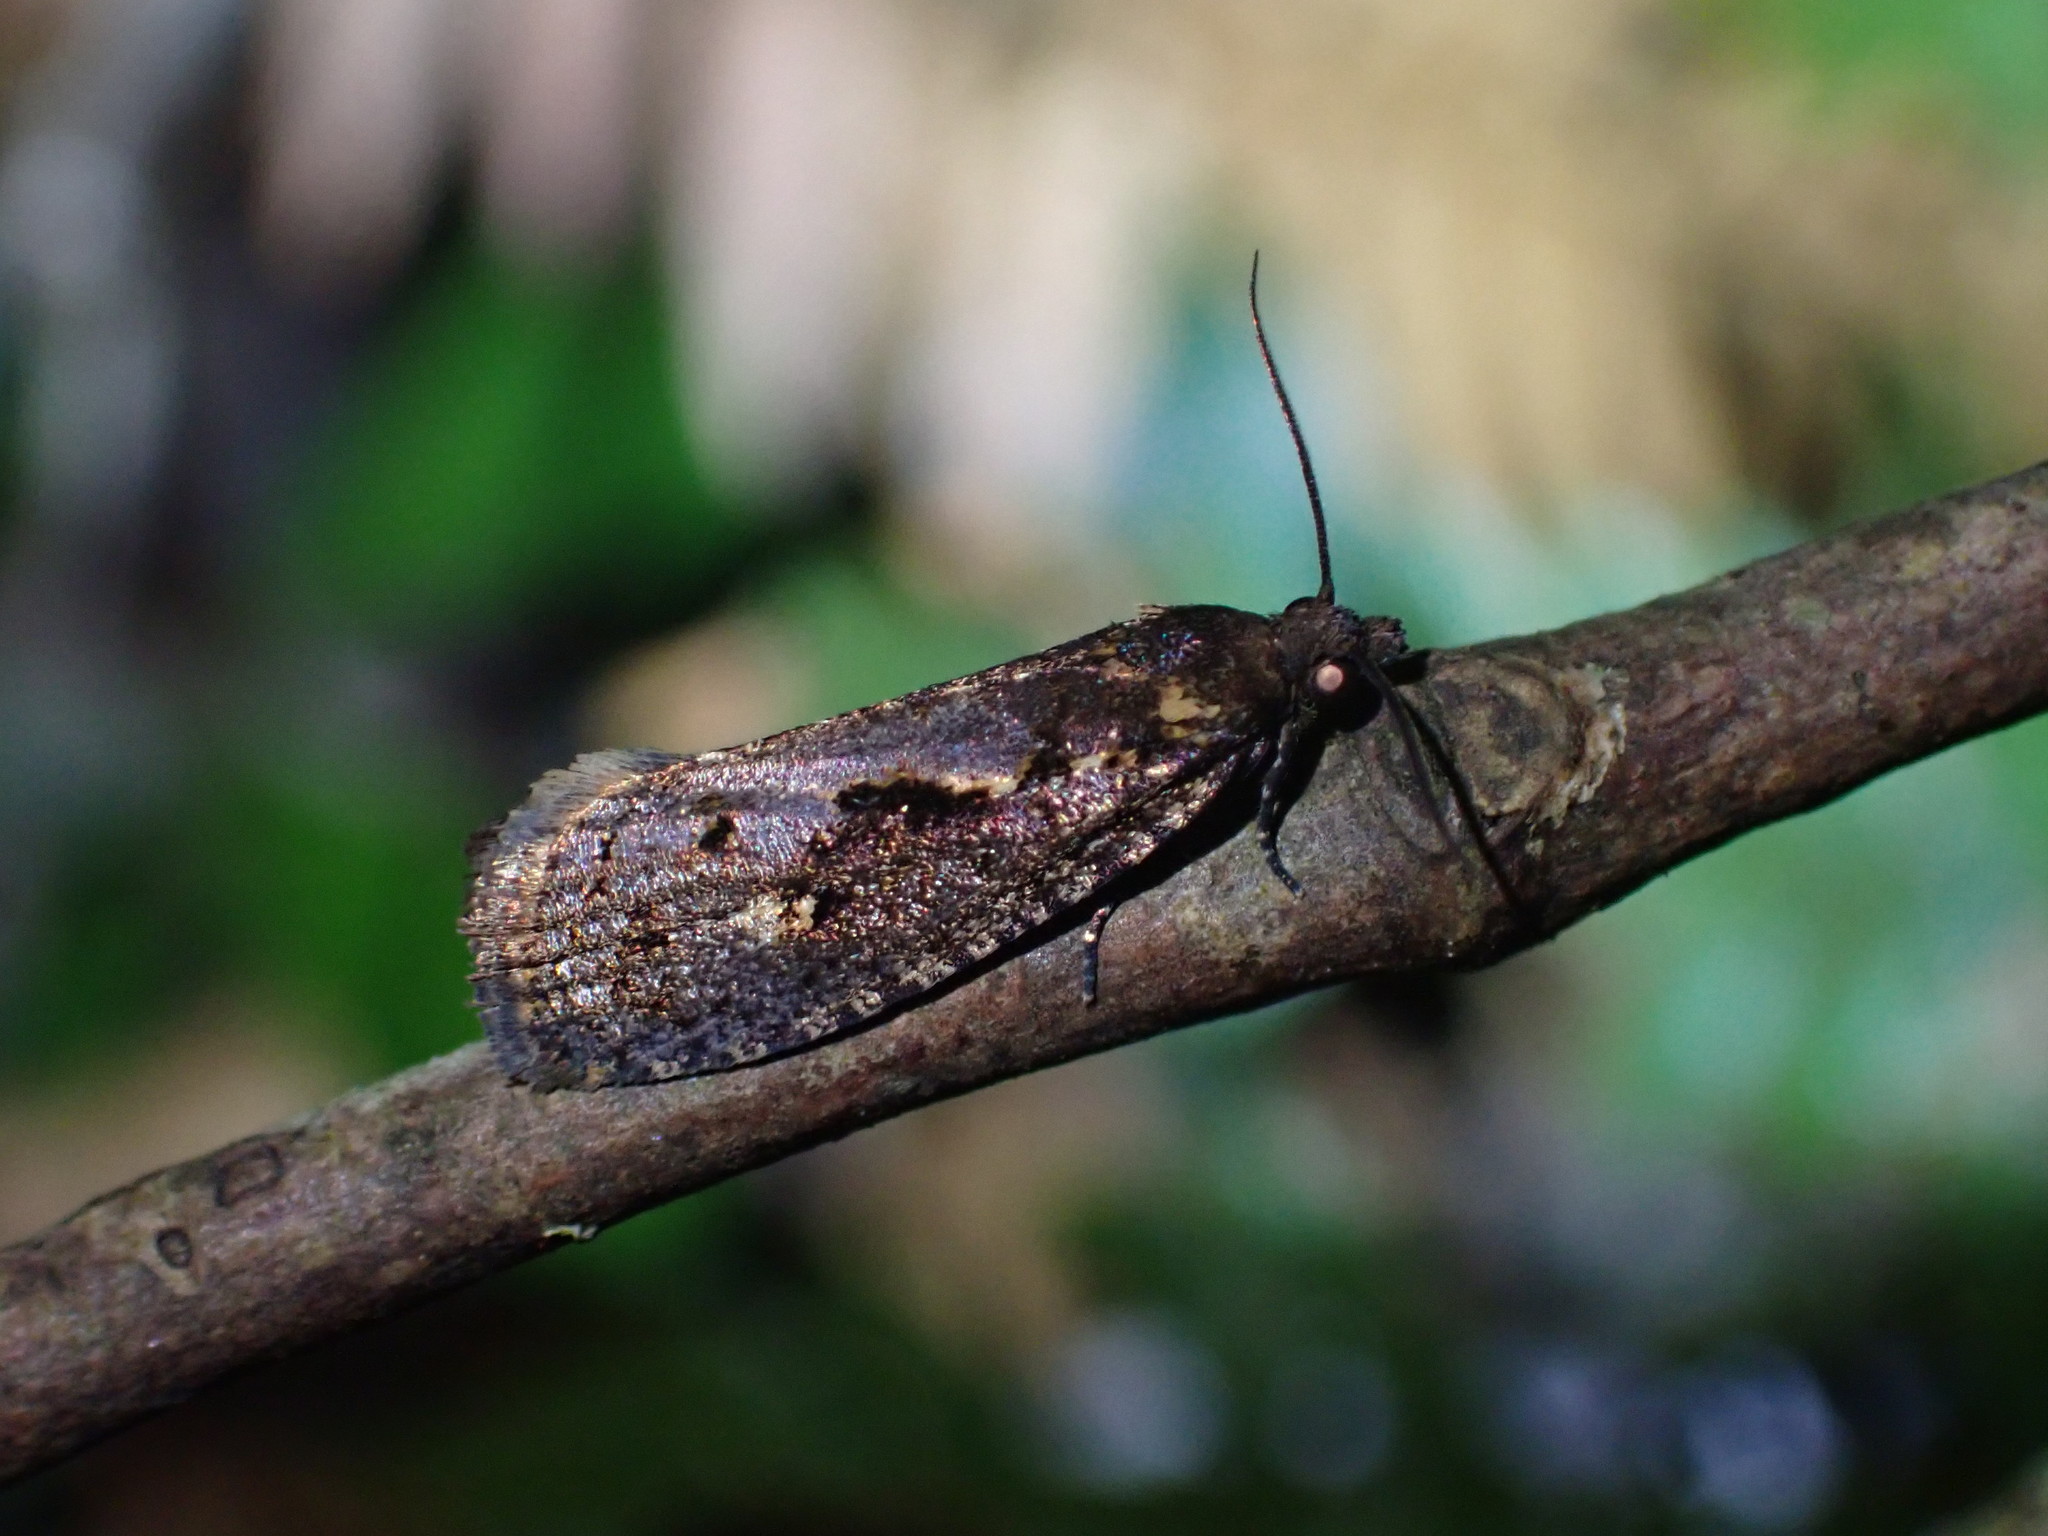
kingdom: Animalia
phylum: Arthropoda
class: Insecta
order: Lepidoptera
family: Tortricidae
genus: Cryptaspasma
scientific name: Cryptaspasma querula
